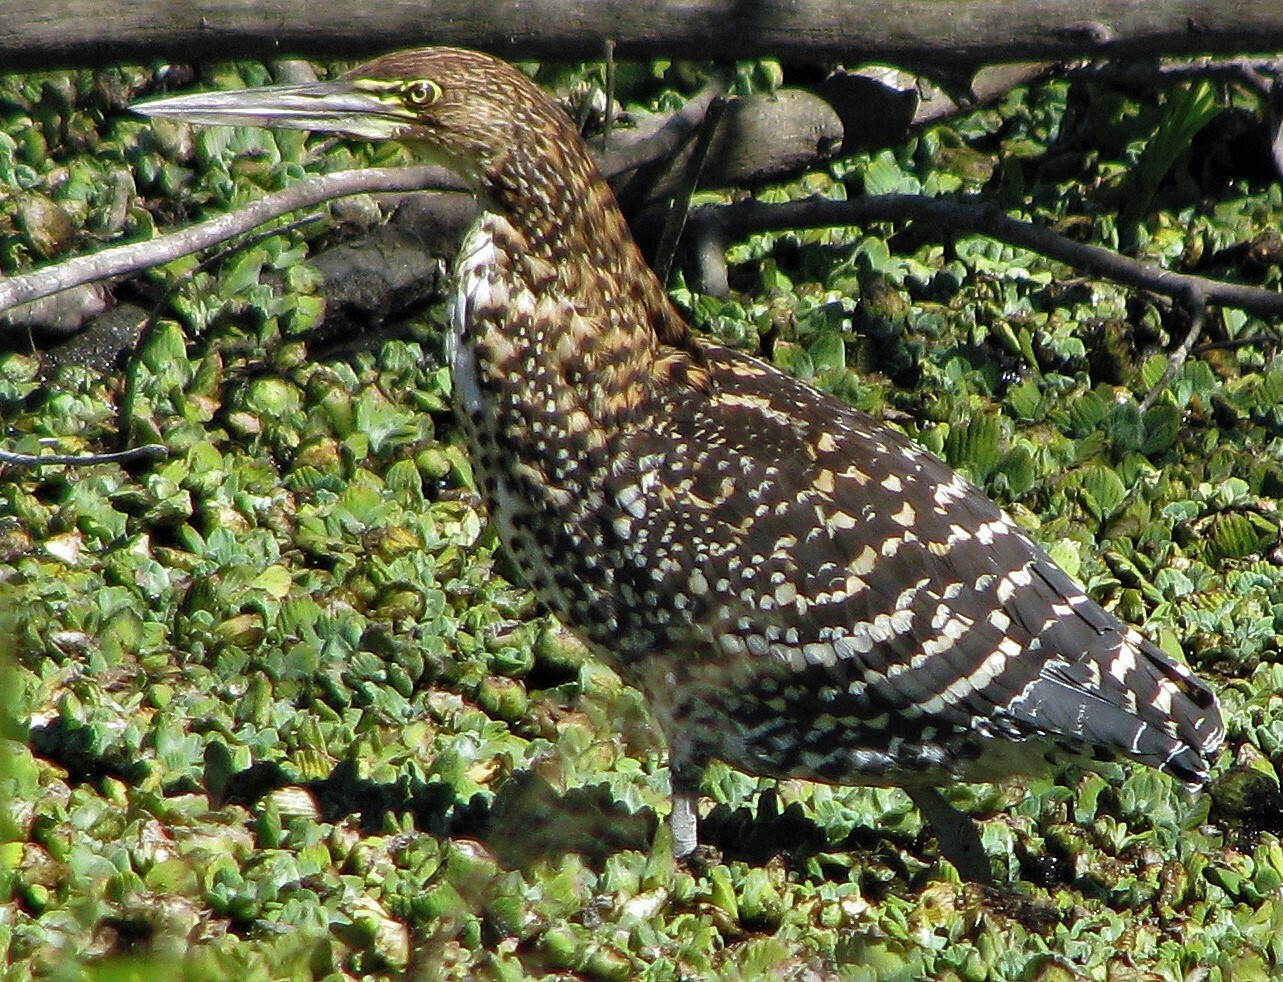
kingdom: Animalia
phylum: Chordata
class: Aves
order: Pelecaniformes
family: Ardeidae
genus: Tigrisoma
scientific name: Tigrisoma lineatum
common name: Rufescent tiger-heron
